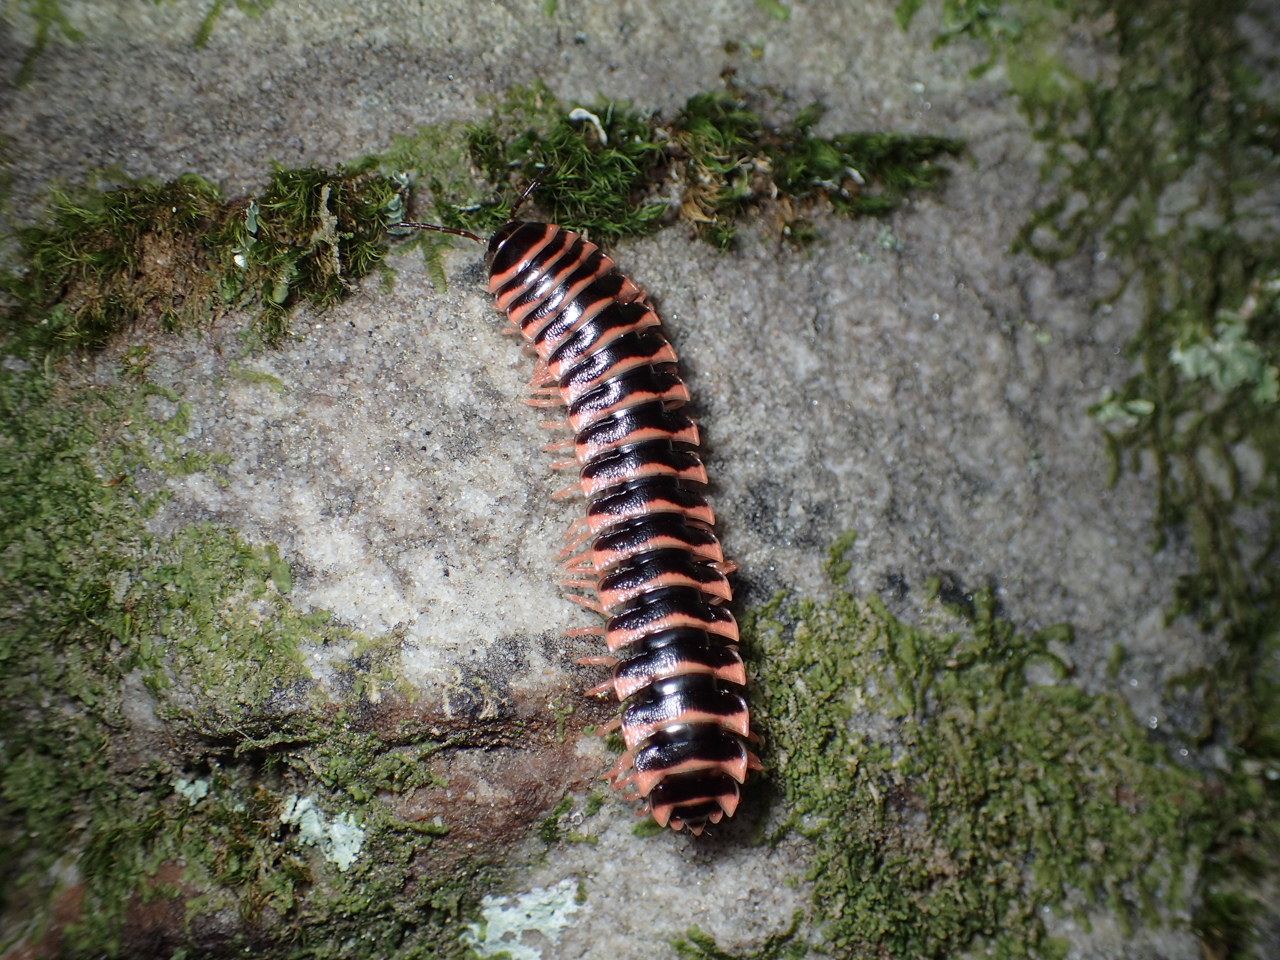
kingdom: Animalia
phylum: Arthropoda
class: Diplopoda
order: Polydesmida
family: Xystodesmidae
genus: Cherokia
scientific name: Cherokia georgiana
